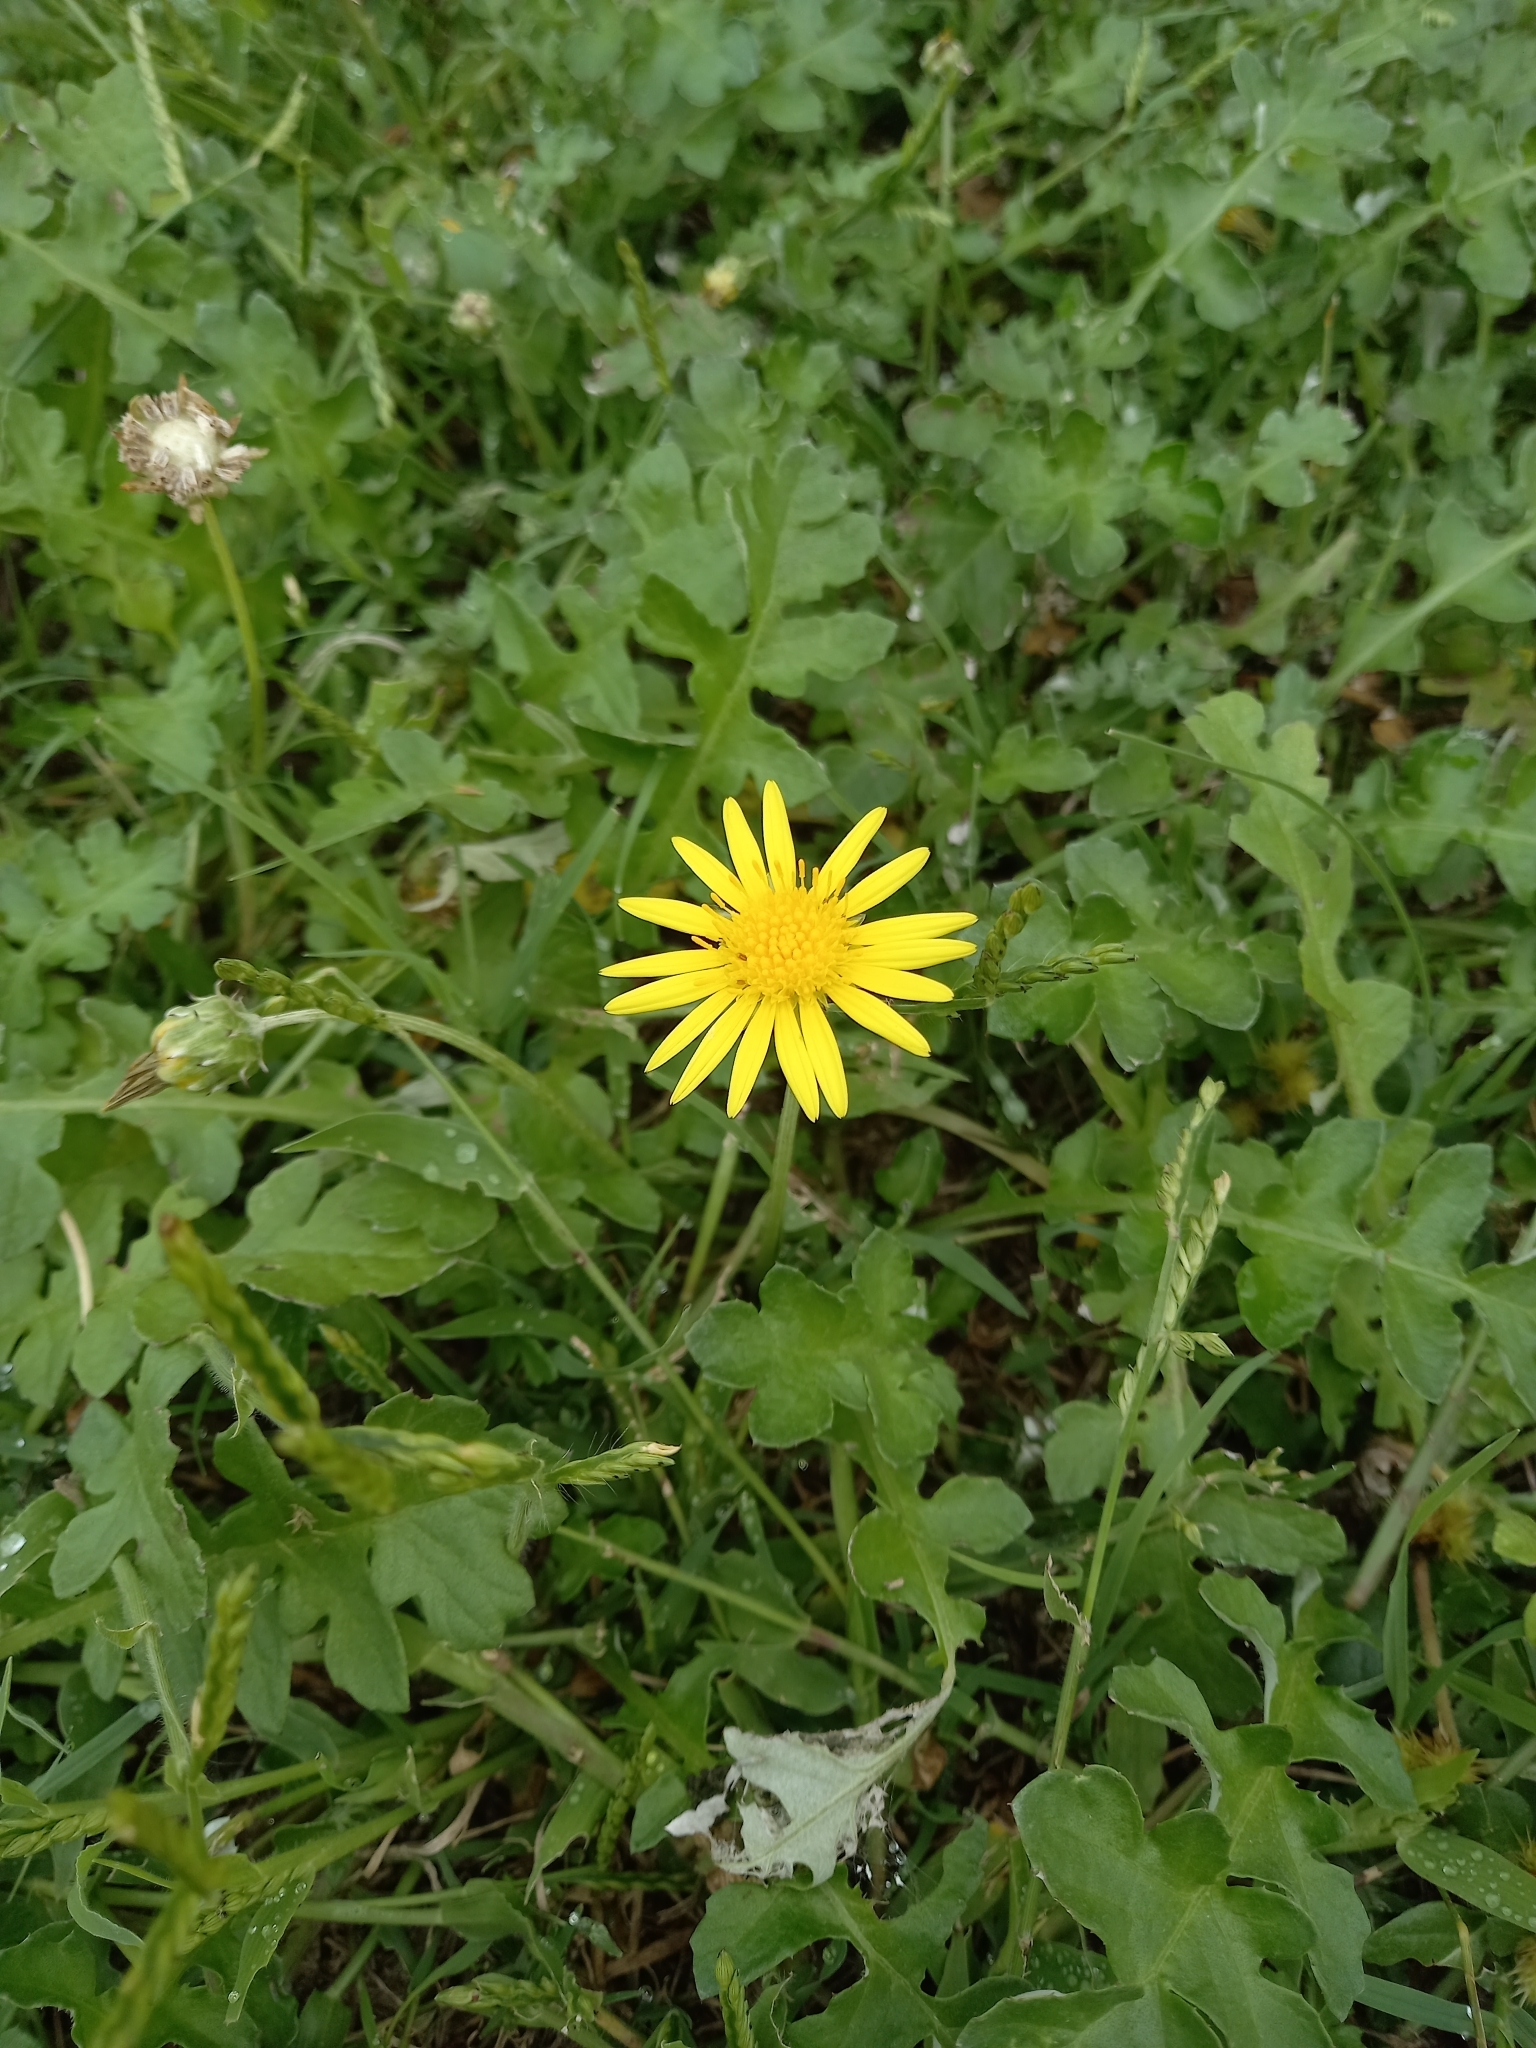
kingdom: Plantae
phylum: Tracheophyta
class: Magnoliopsida
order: Asterales
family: Asteraceae
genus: Arctotheca
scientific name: Arctotheca prostrata
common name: Capeweed
